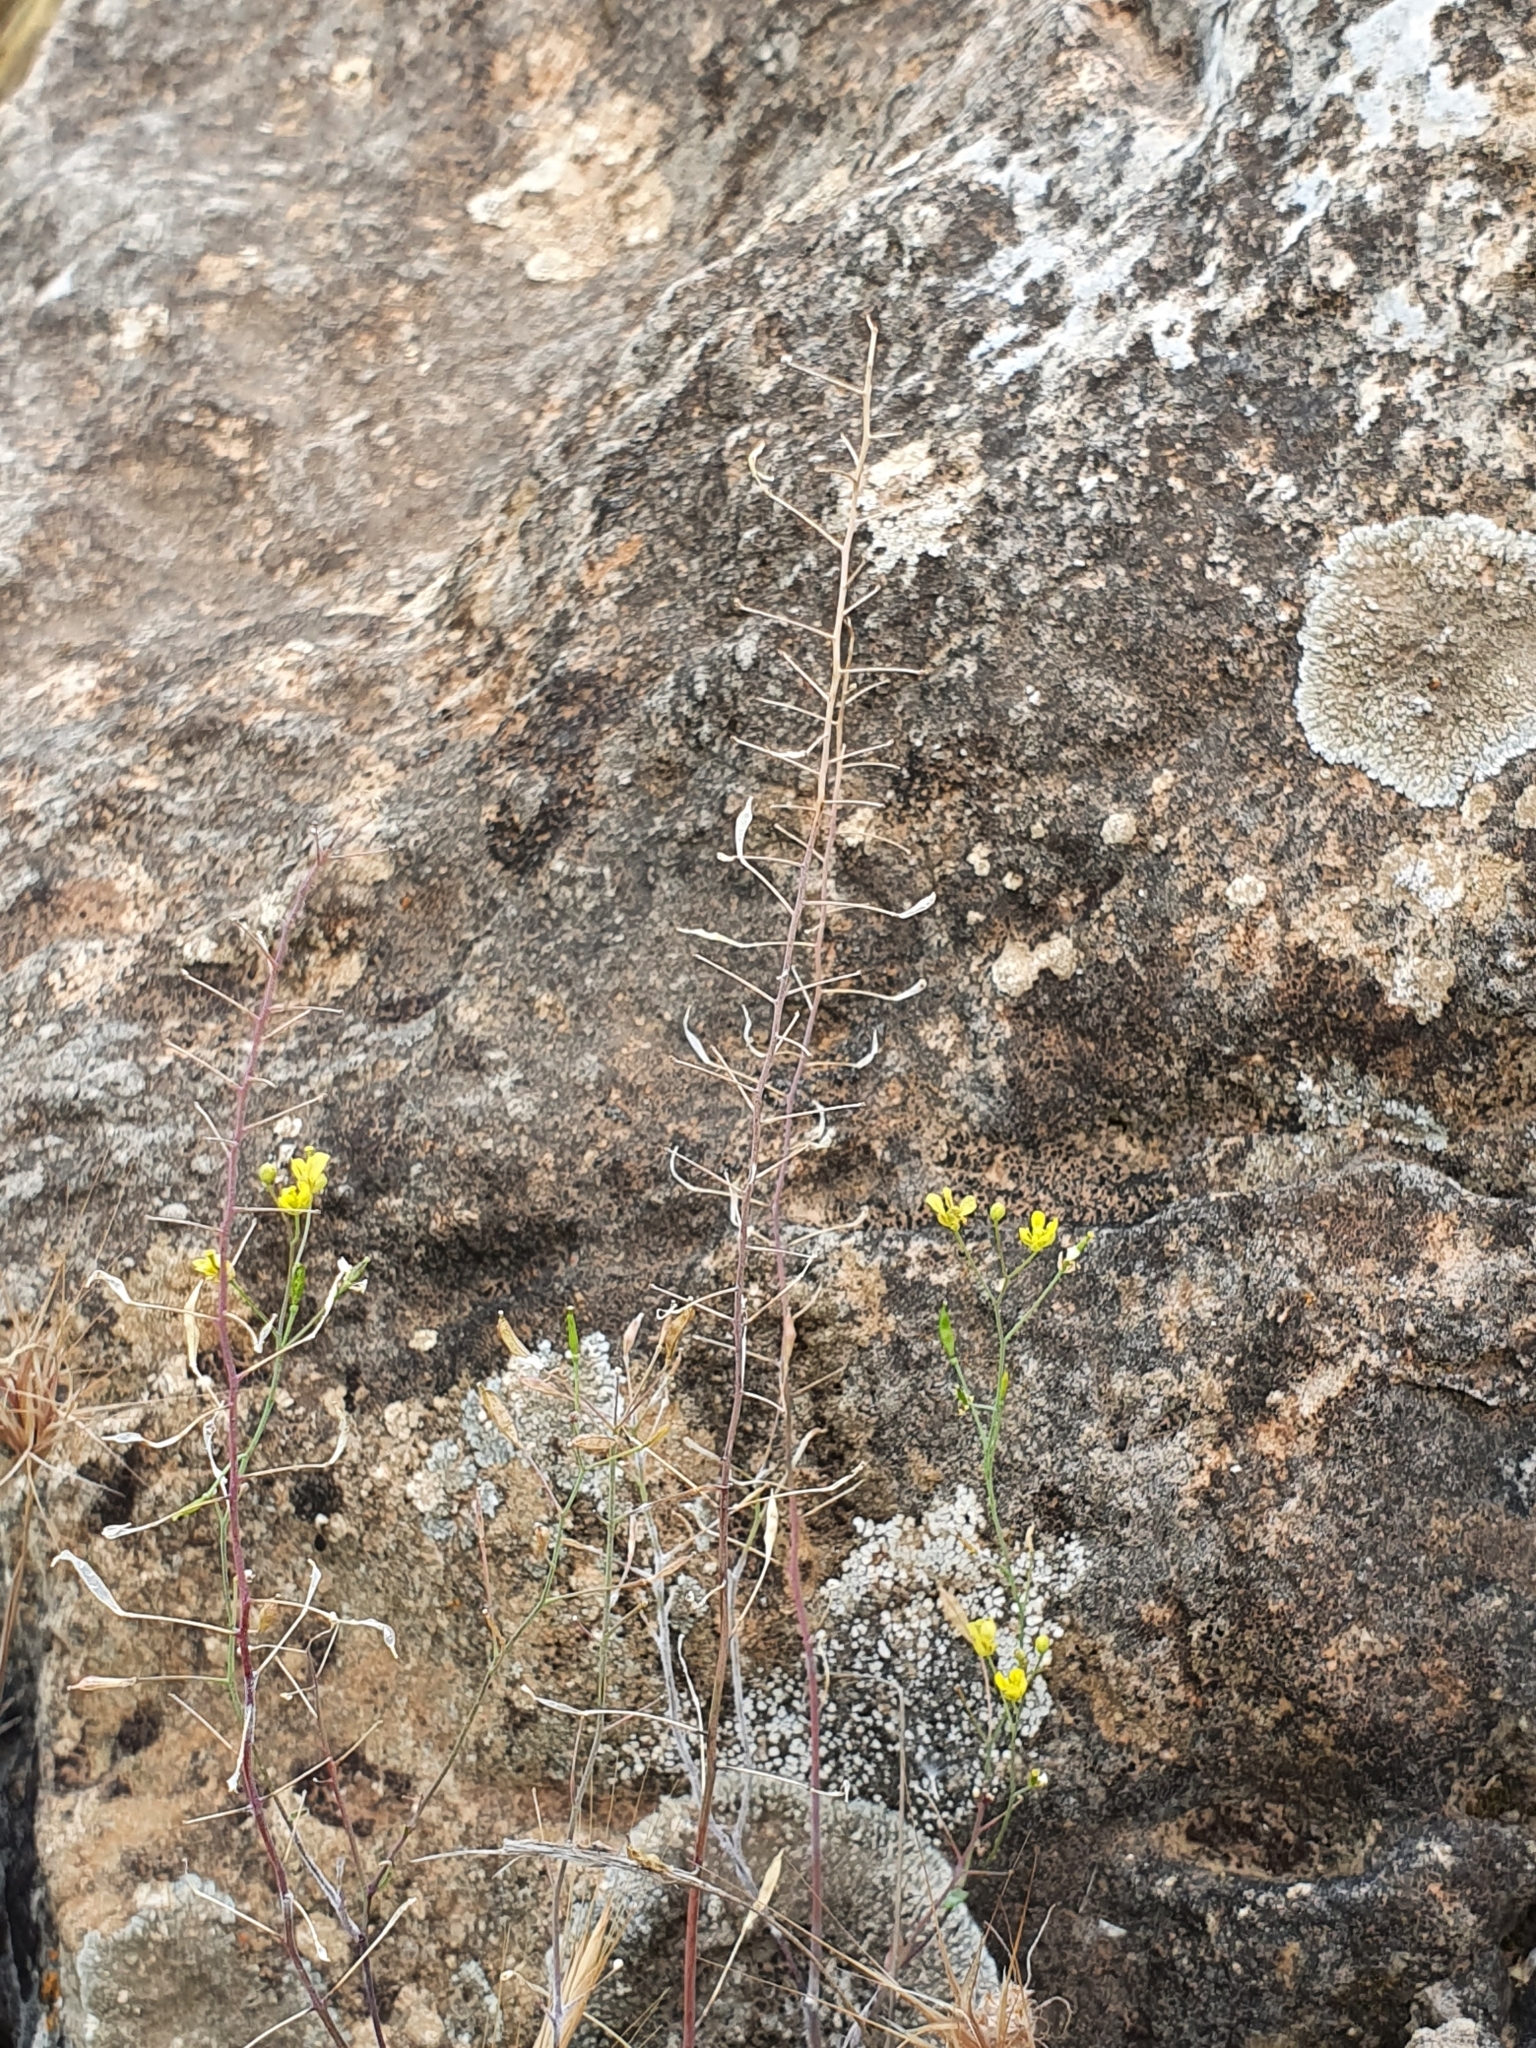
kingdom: Plantae
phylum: Tracheophyta
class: Magnoliopsida
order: Brassicales
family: Brassicaceae
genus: Brassica
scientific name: Brassica souliei
